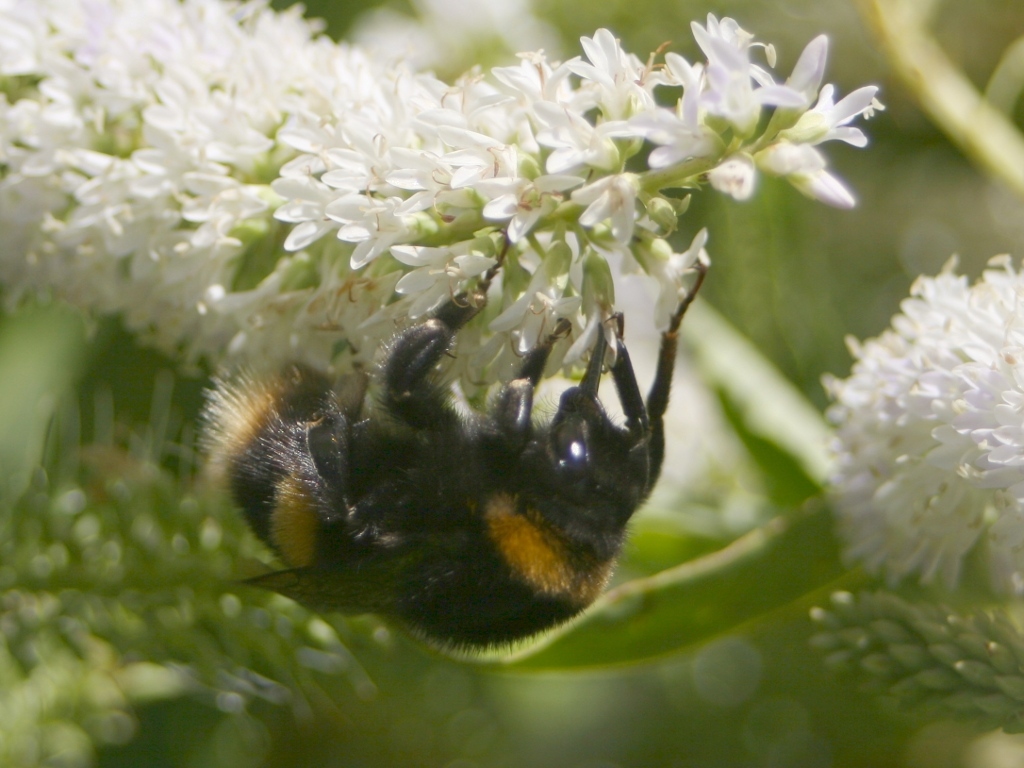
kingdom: Animalia
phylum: Arthropoda
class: Insecta
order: Hymenoptera
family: Apidae
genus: Bombus
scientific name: Bombus terrestris
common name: Buff-tailed bumblebee
